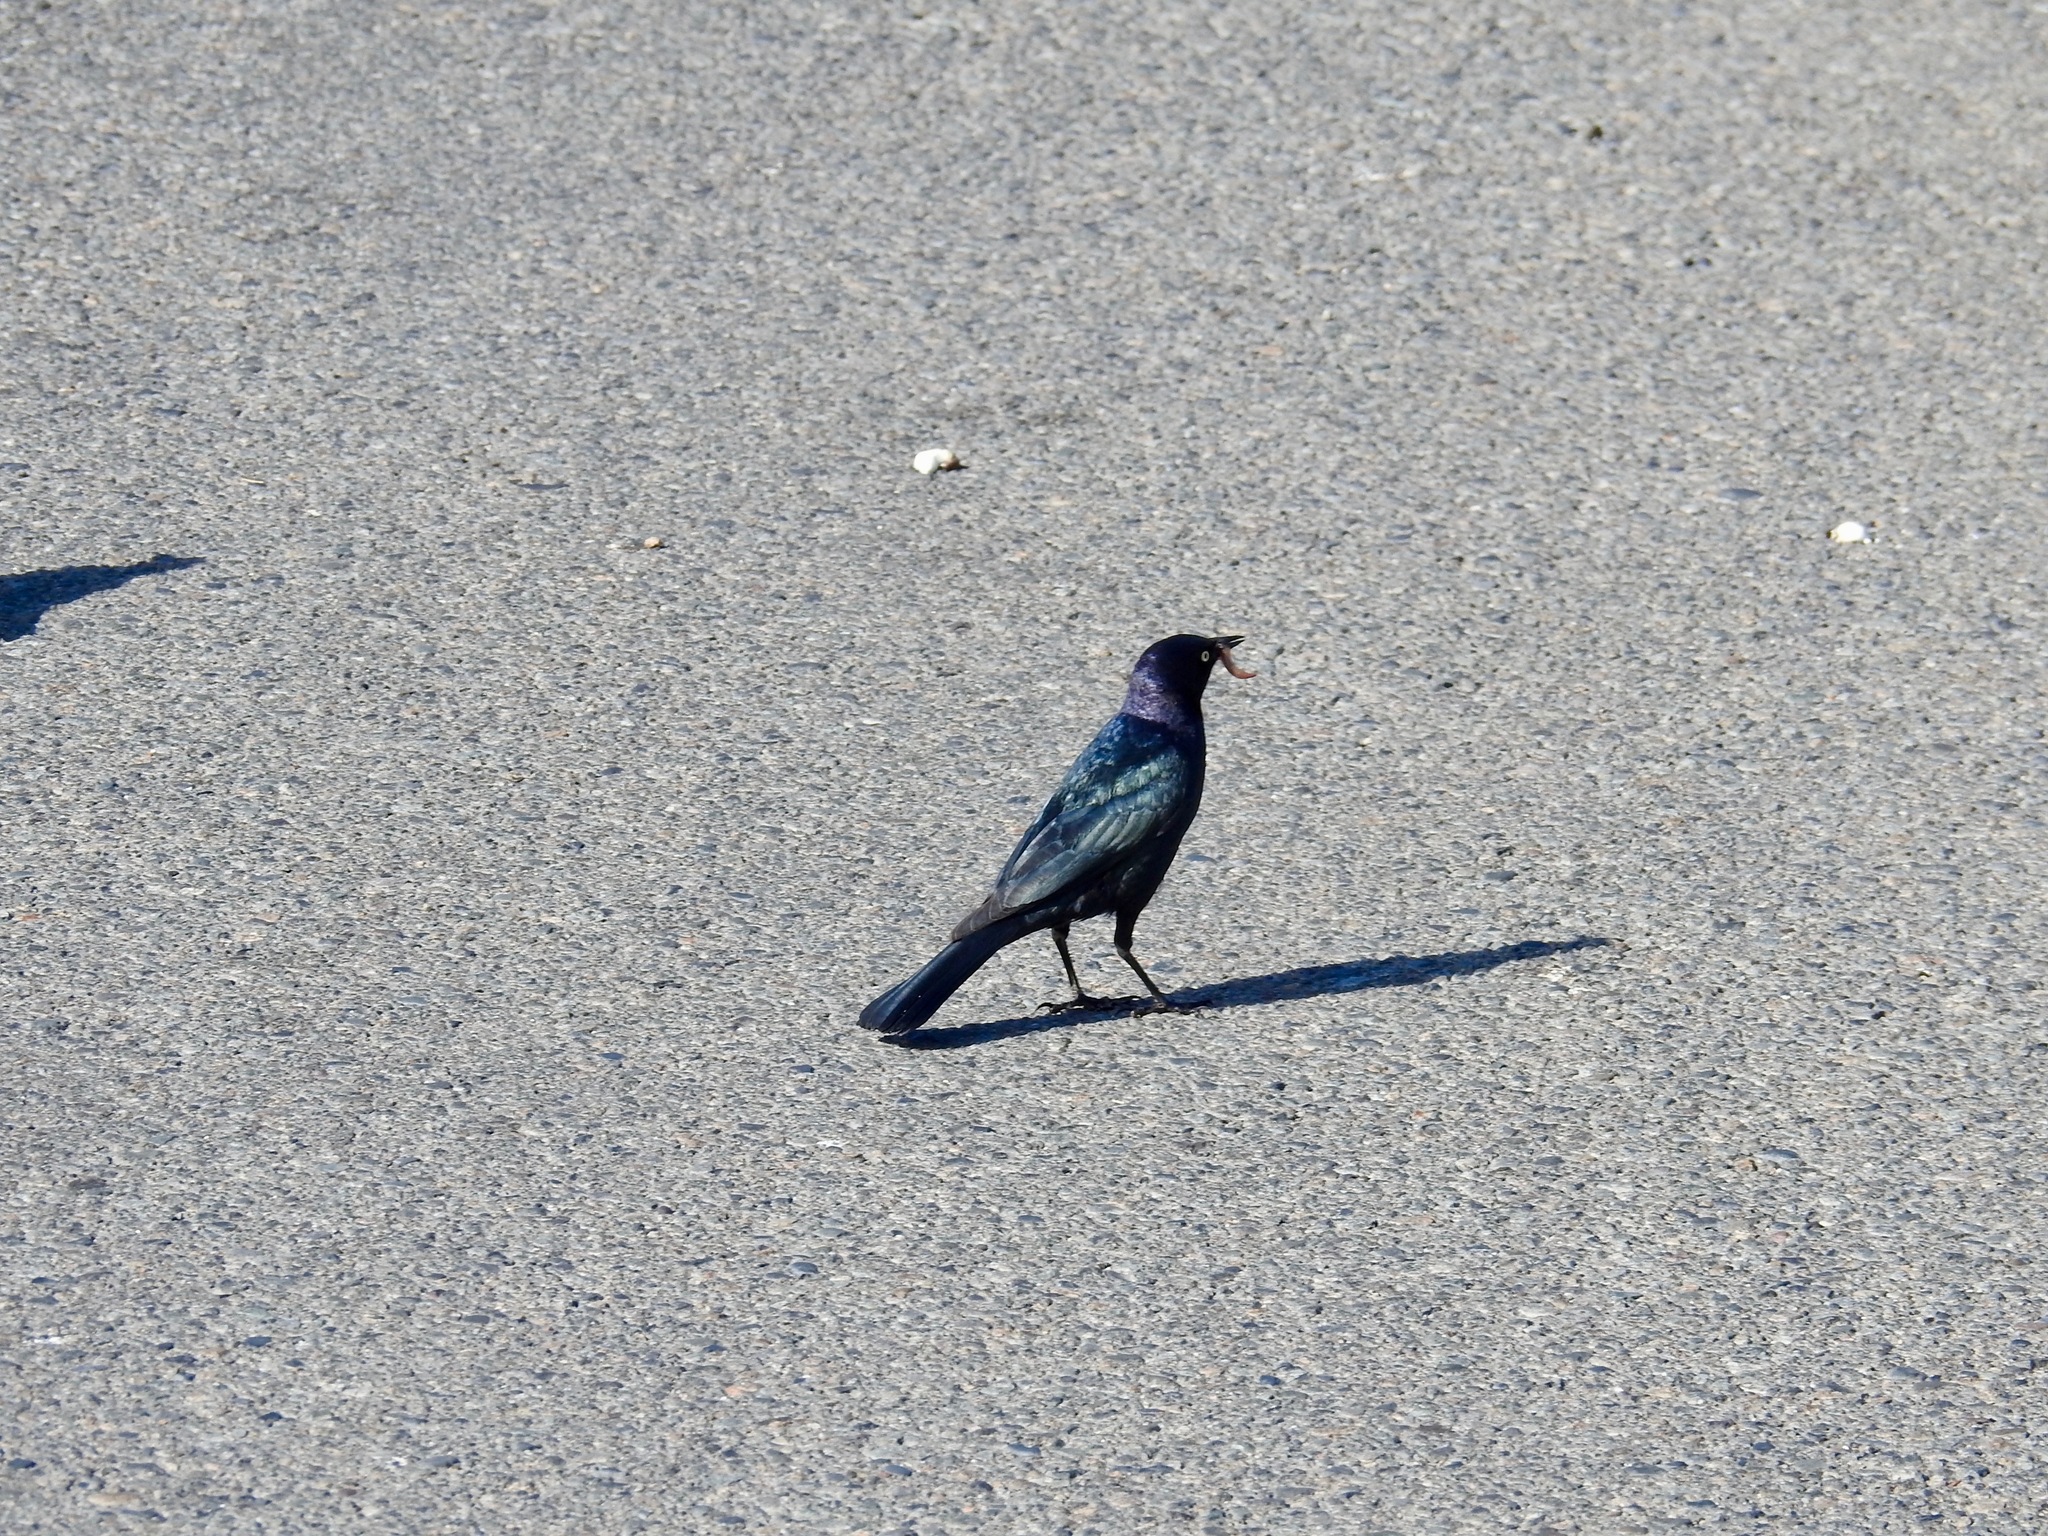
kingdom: Animalia
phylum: Chordata
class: Aves
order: Passeriformes
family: Icteridae
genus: Euphagus
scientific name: Euphagus cyanocephalus
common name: Brewer's blackbird
